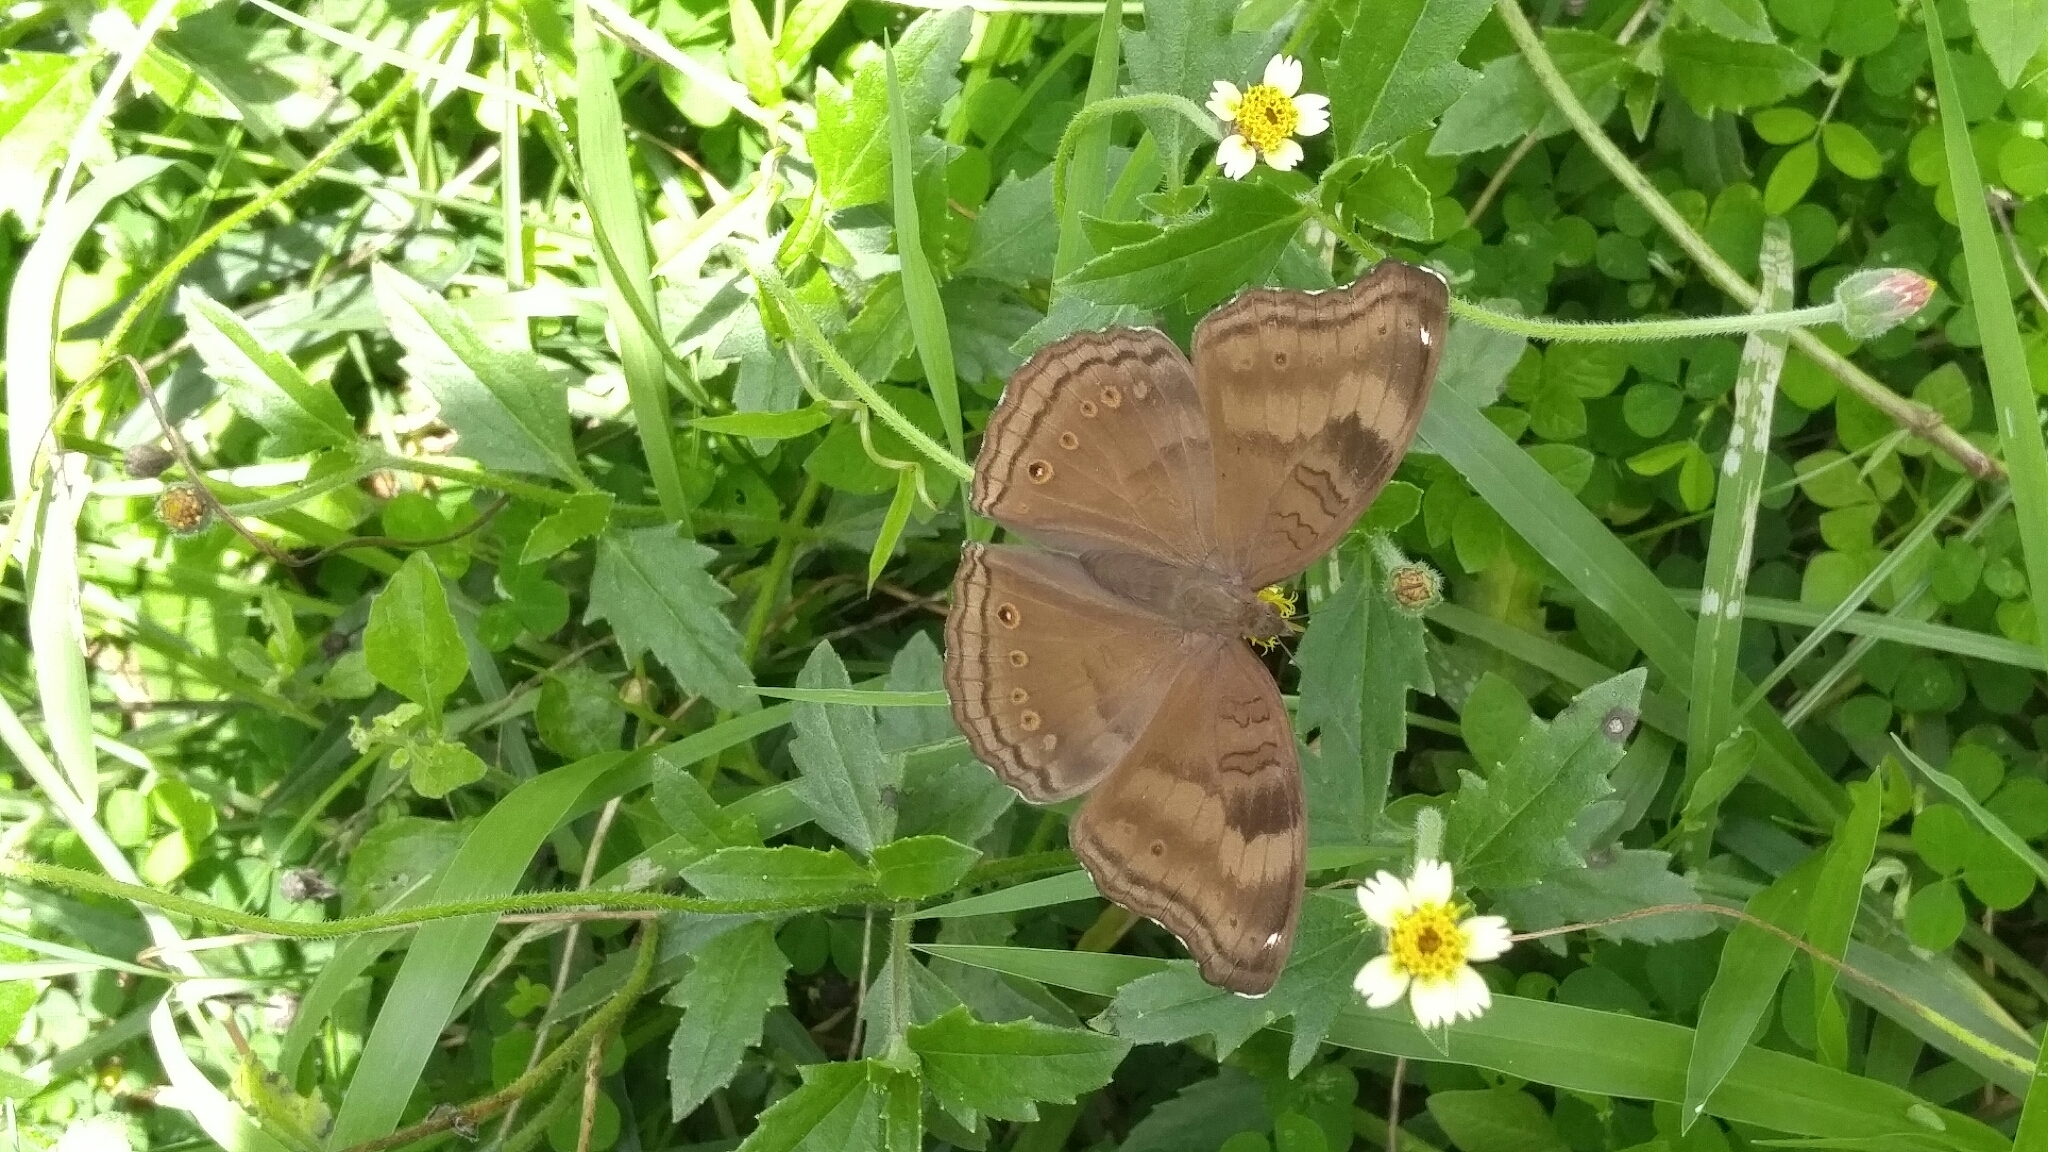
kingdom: Animalia
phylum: Arthropoda
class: Insecta
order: Lepidoptera
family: Nymphalidae
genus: Junonia
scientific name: Junonia iphita
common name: Chocolate pansy
